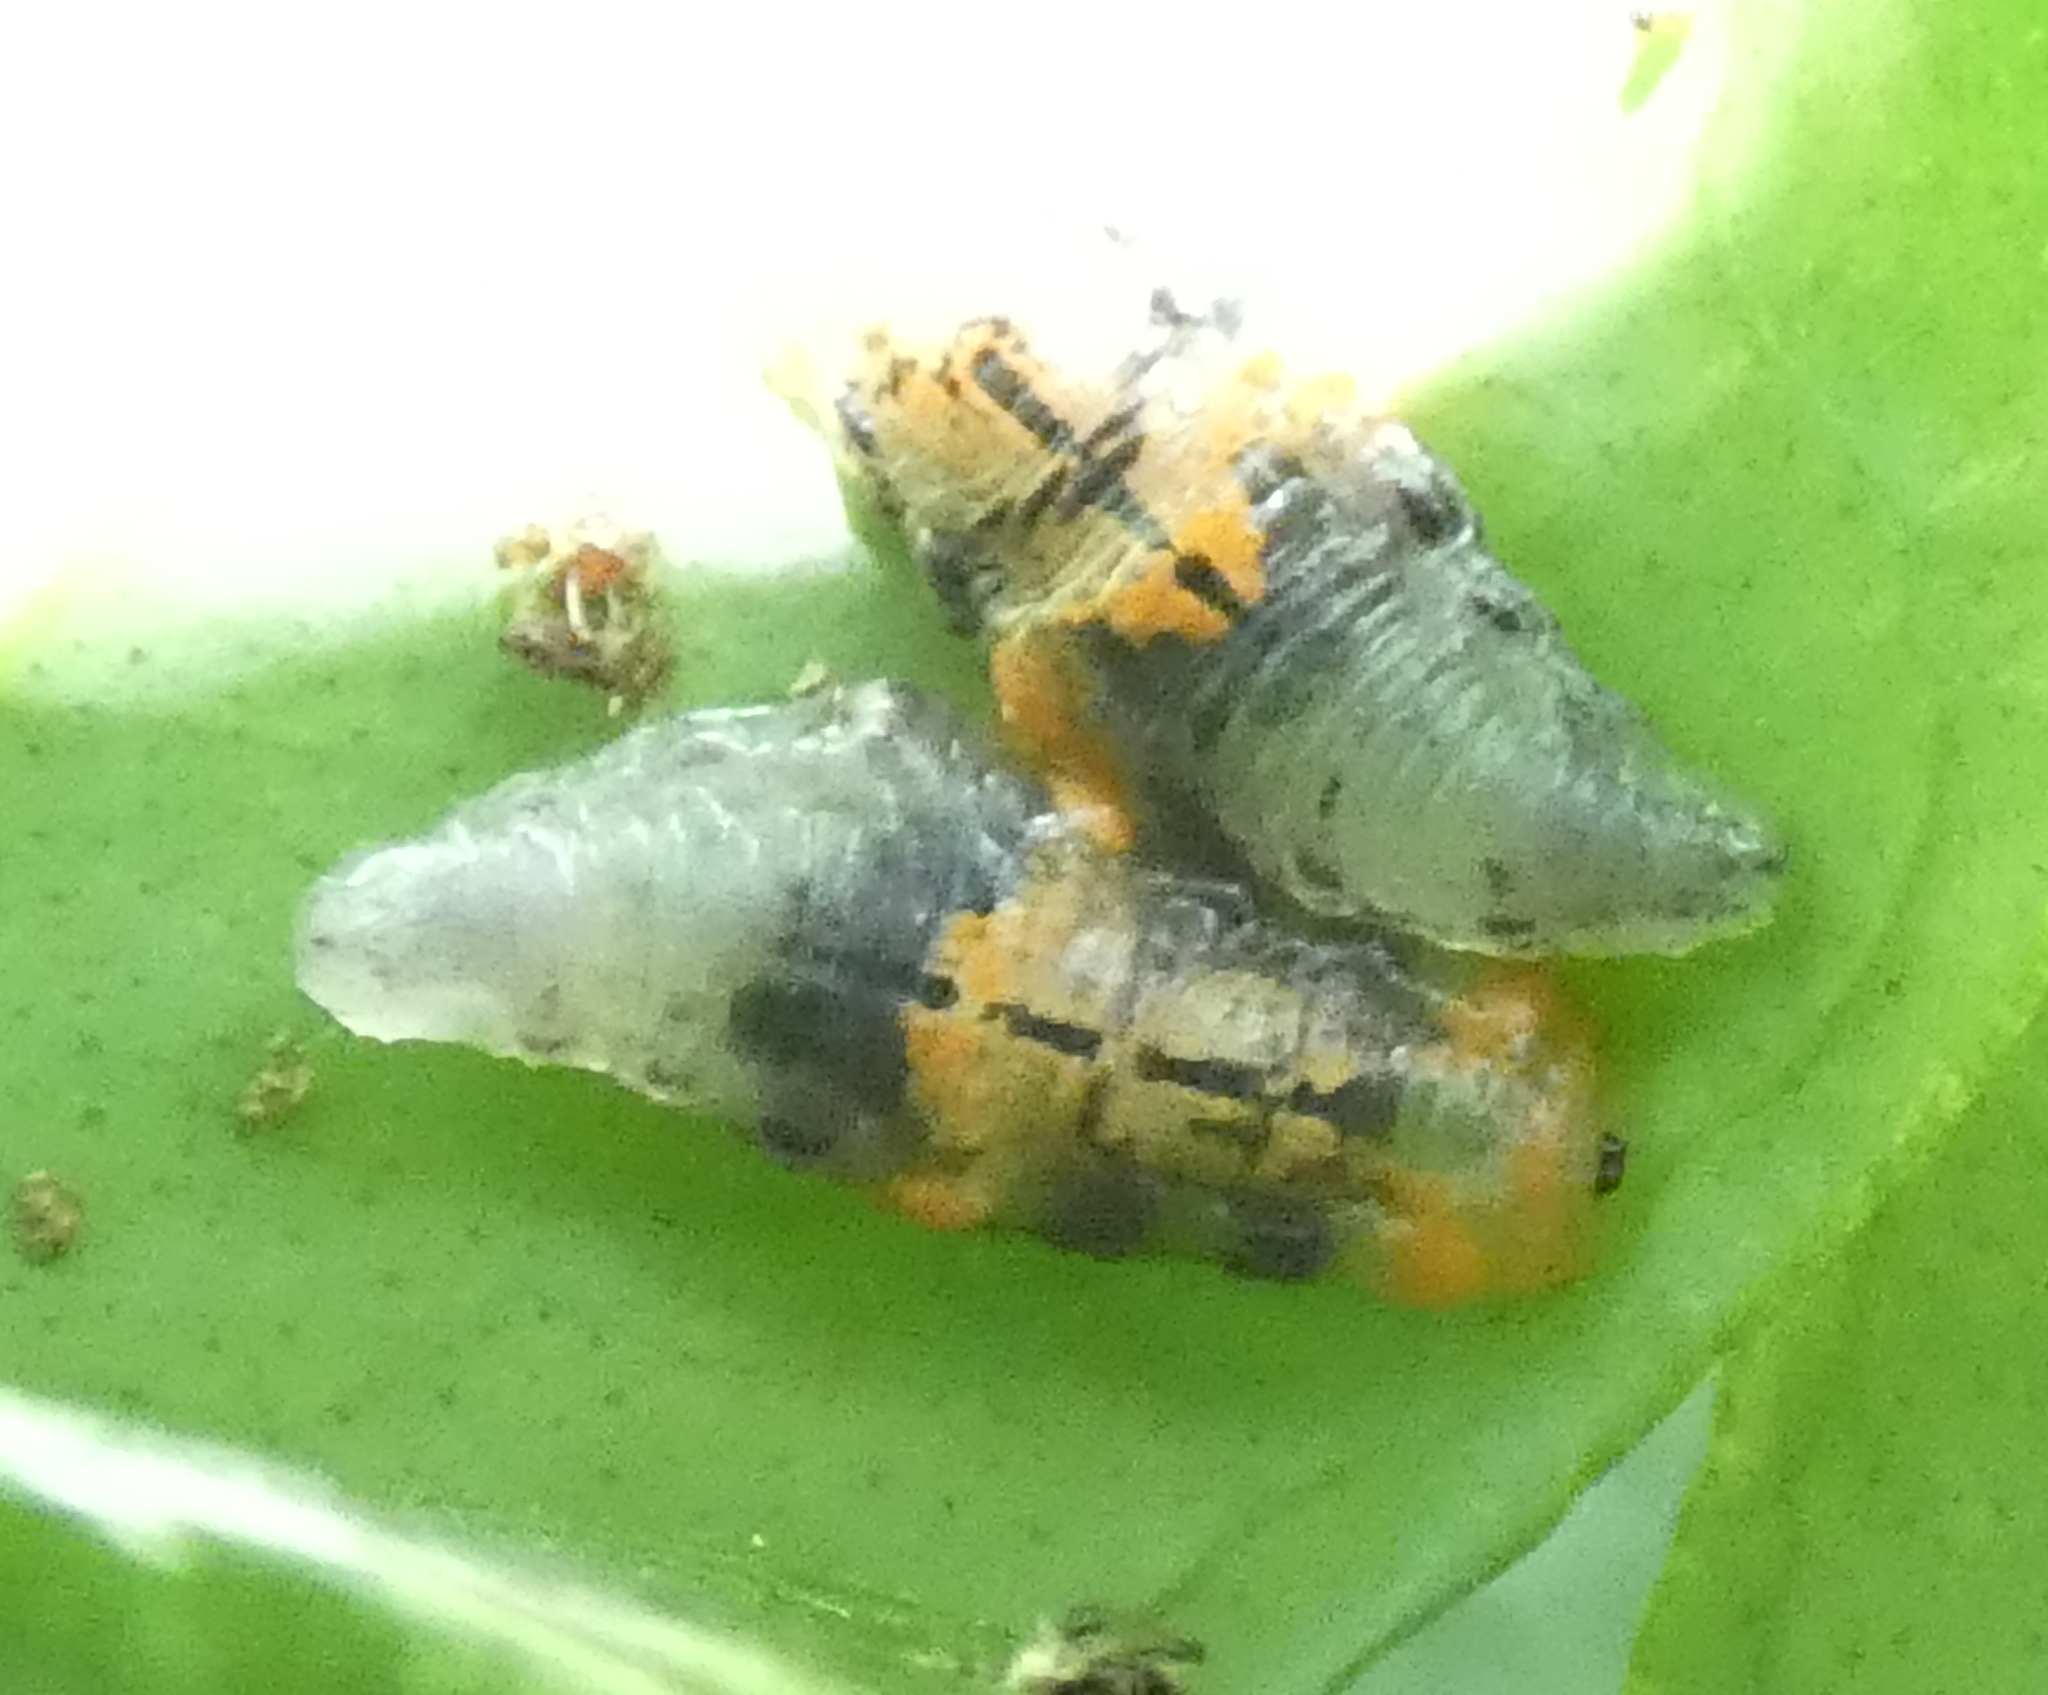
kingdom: Animalia
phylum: Arthropoda
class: Insecta
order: Diptera
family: Syrphidae
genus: Ocyptamus
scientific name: Ocyptamus gastrostactus
